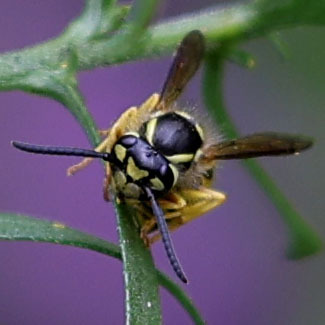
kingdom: Animalia
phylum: Arthropoda
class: Insecta
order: Hymenoptera
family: Vespidae
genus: Vespula
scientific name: Vespula
